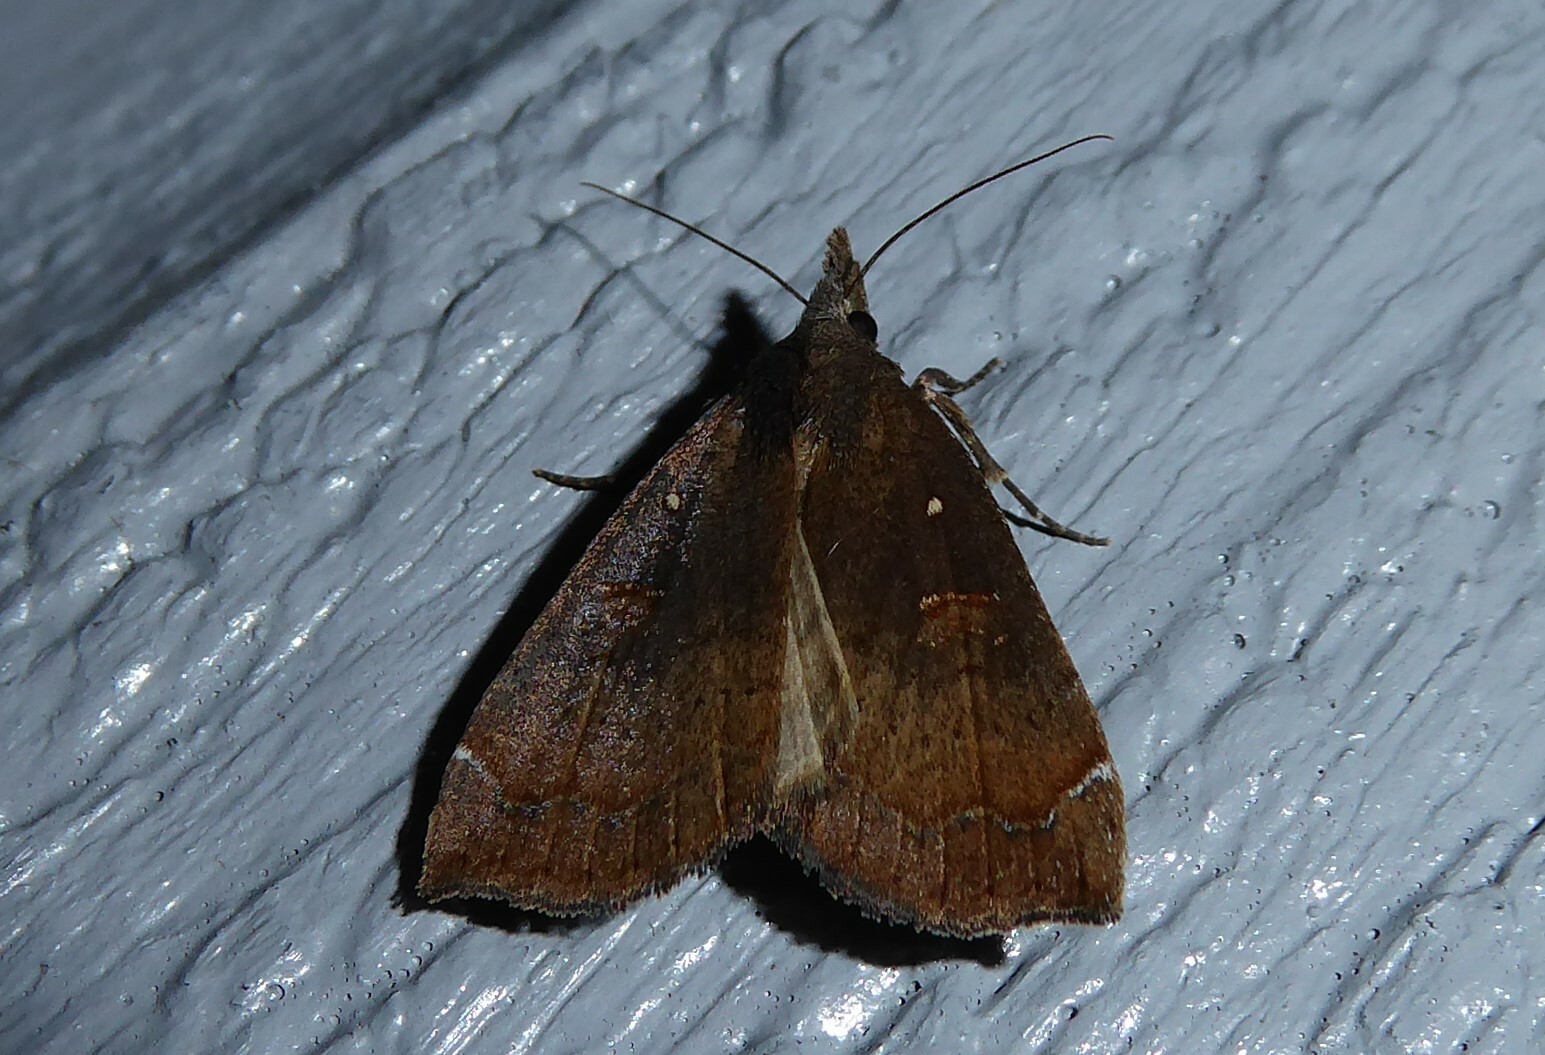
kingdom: Animalia
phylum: Arthropoda
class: Insecta
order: Lepidoptera
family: Erebidae
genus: Rhapsa
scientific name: Rhapsa scotosialis
